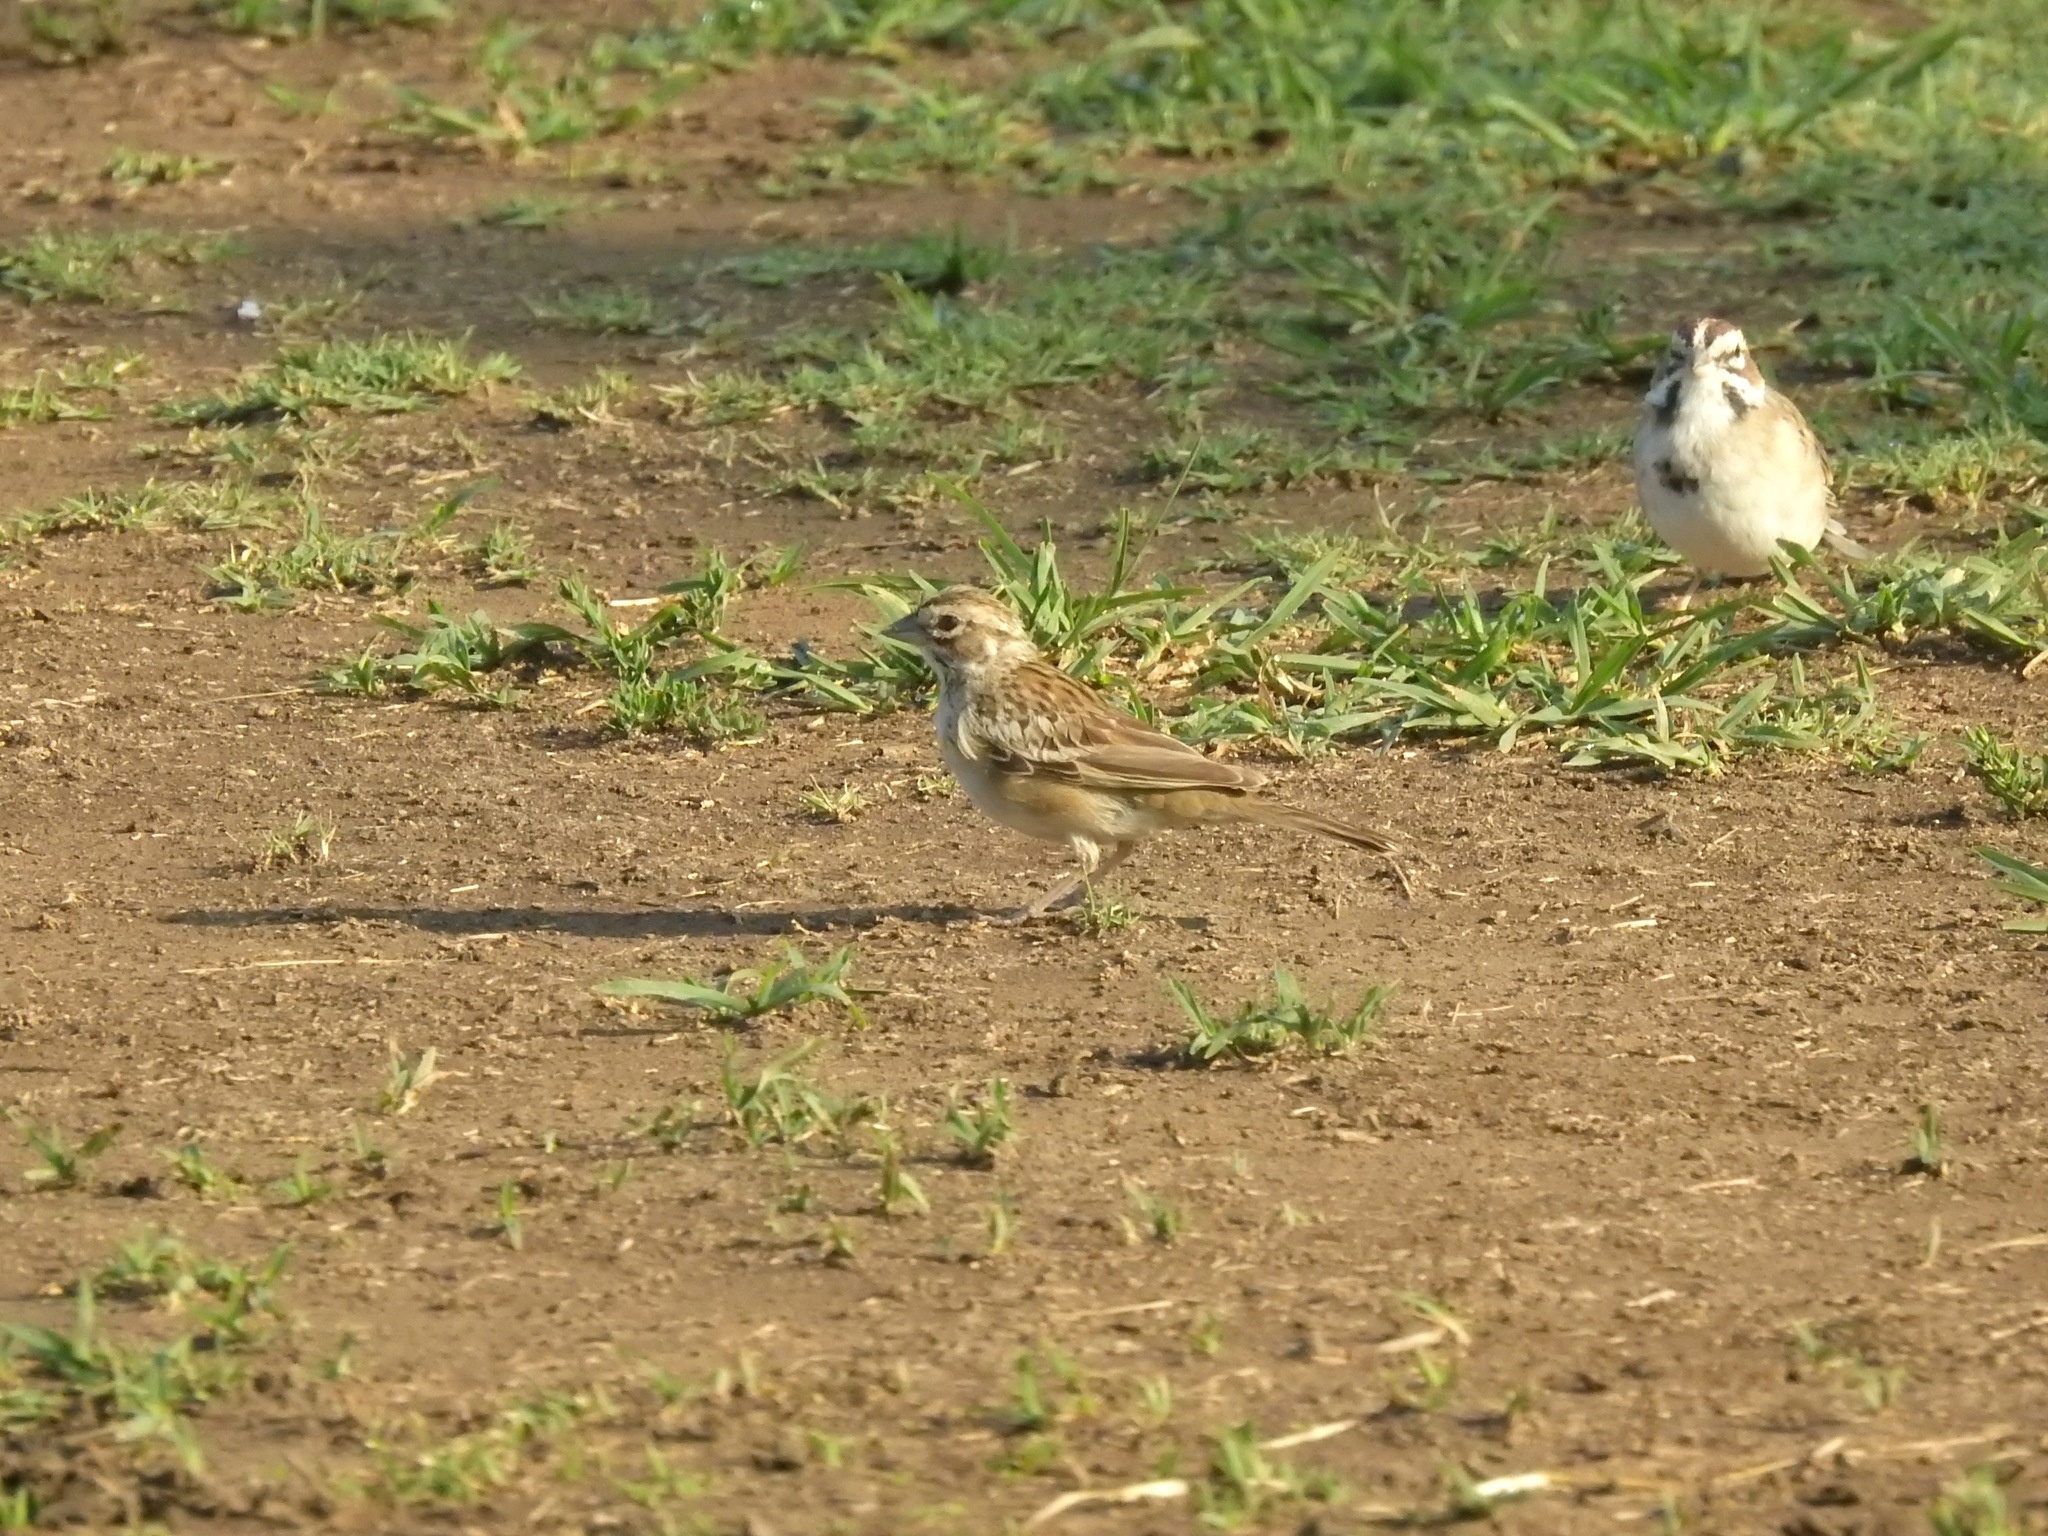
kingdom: Animalia
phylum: Chordata
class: Aves
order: Passeriformes
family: Passerellidae
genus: Chondestes
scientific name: Chondestes grammacus
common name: Lark sparrow
